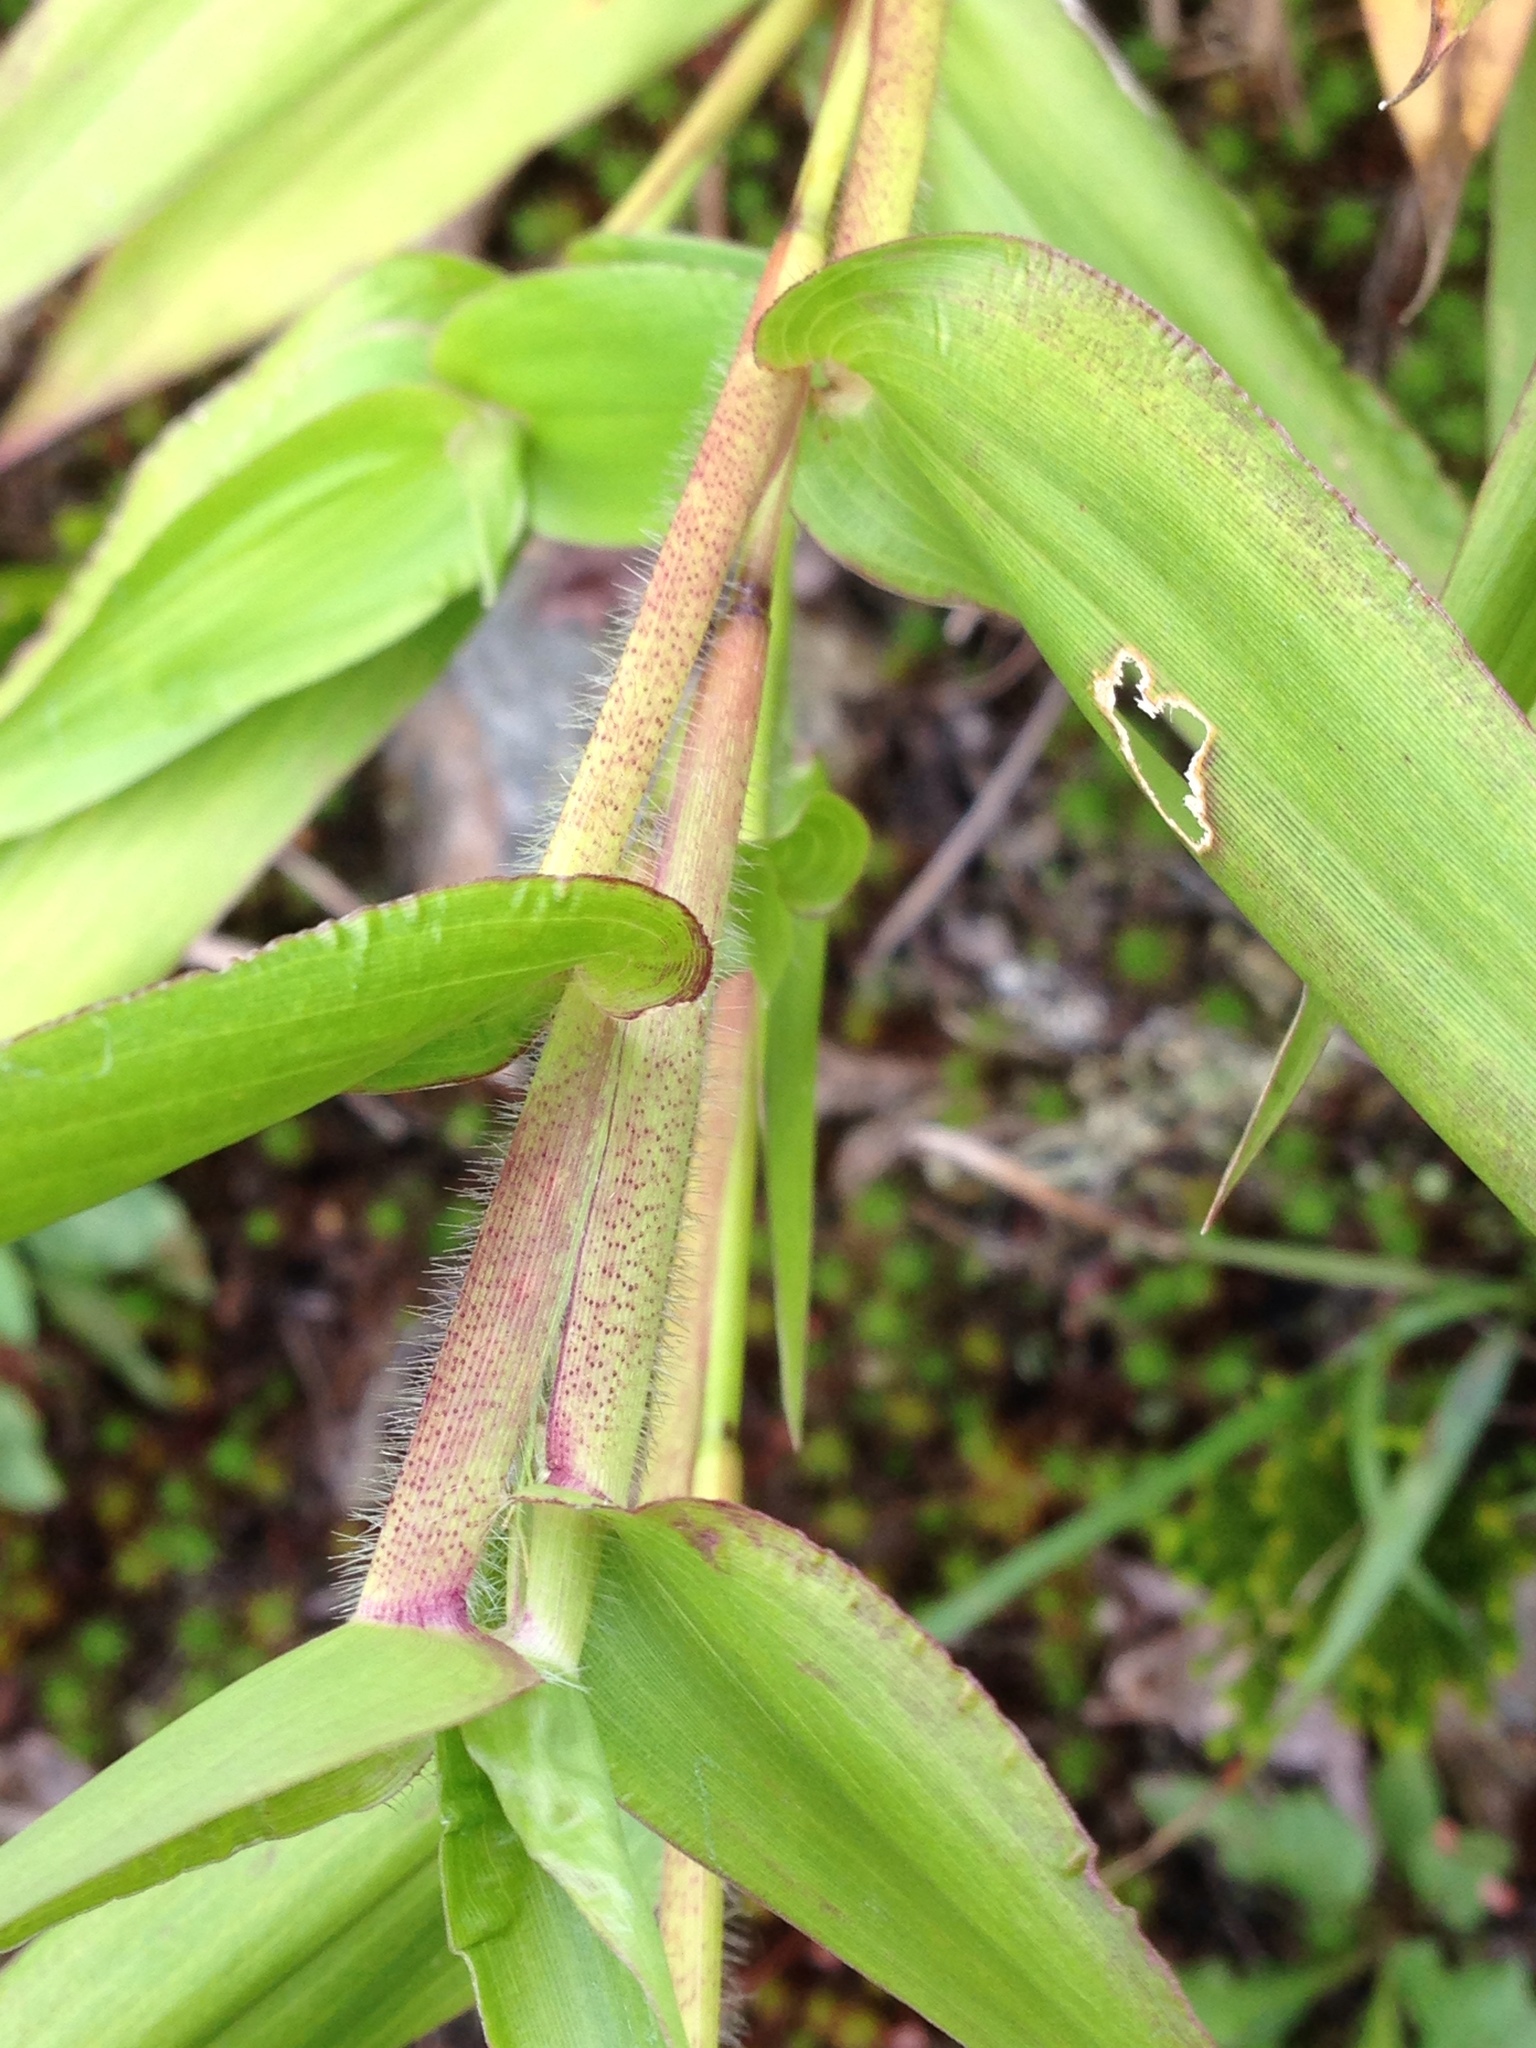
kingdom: Plantae
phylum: Tracheophyta
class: Liliopsida
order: Poales
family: Poaceae
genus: Dichanthelium
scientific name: Dichanthelium clandestinum
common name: Deer-tongue grass
